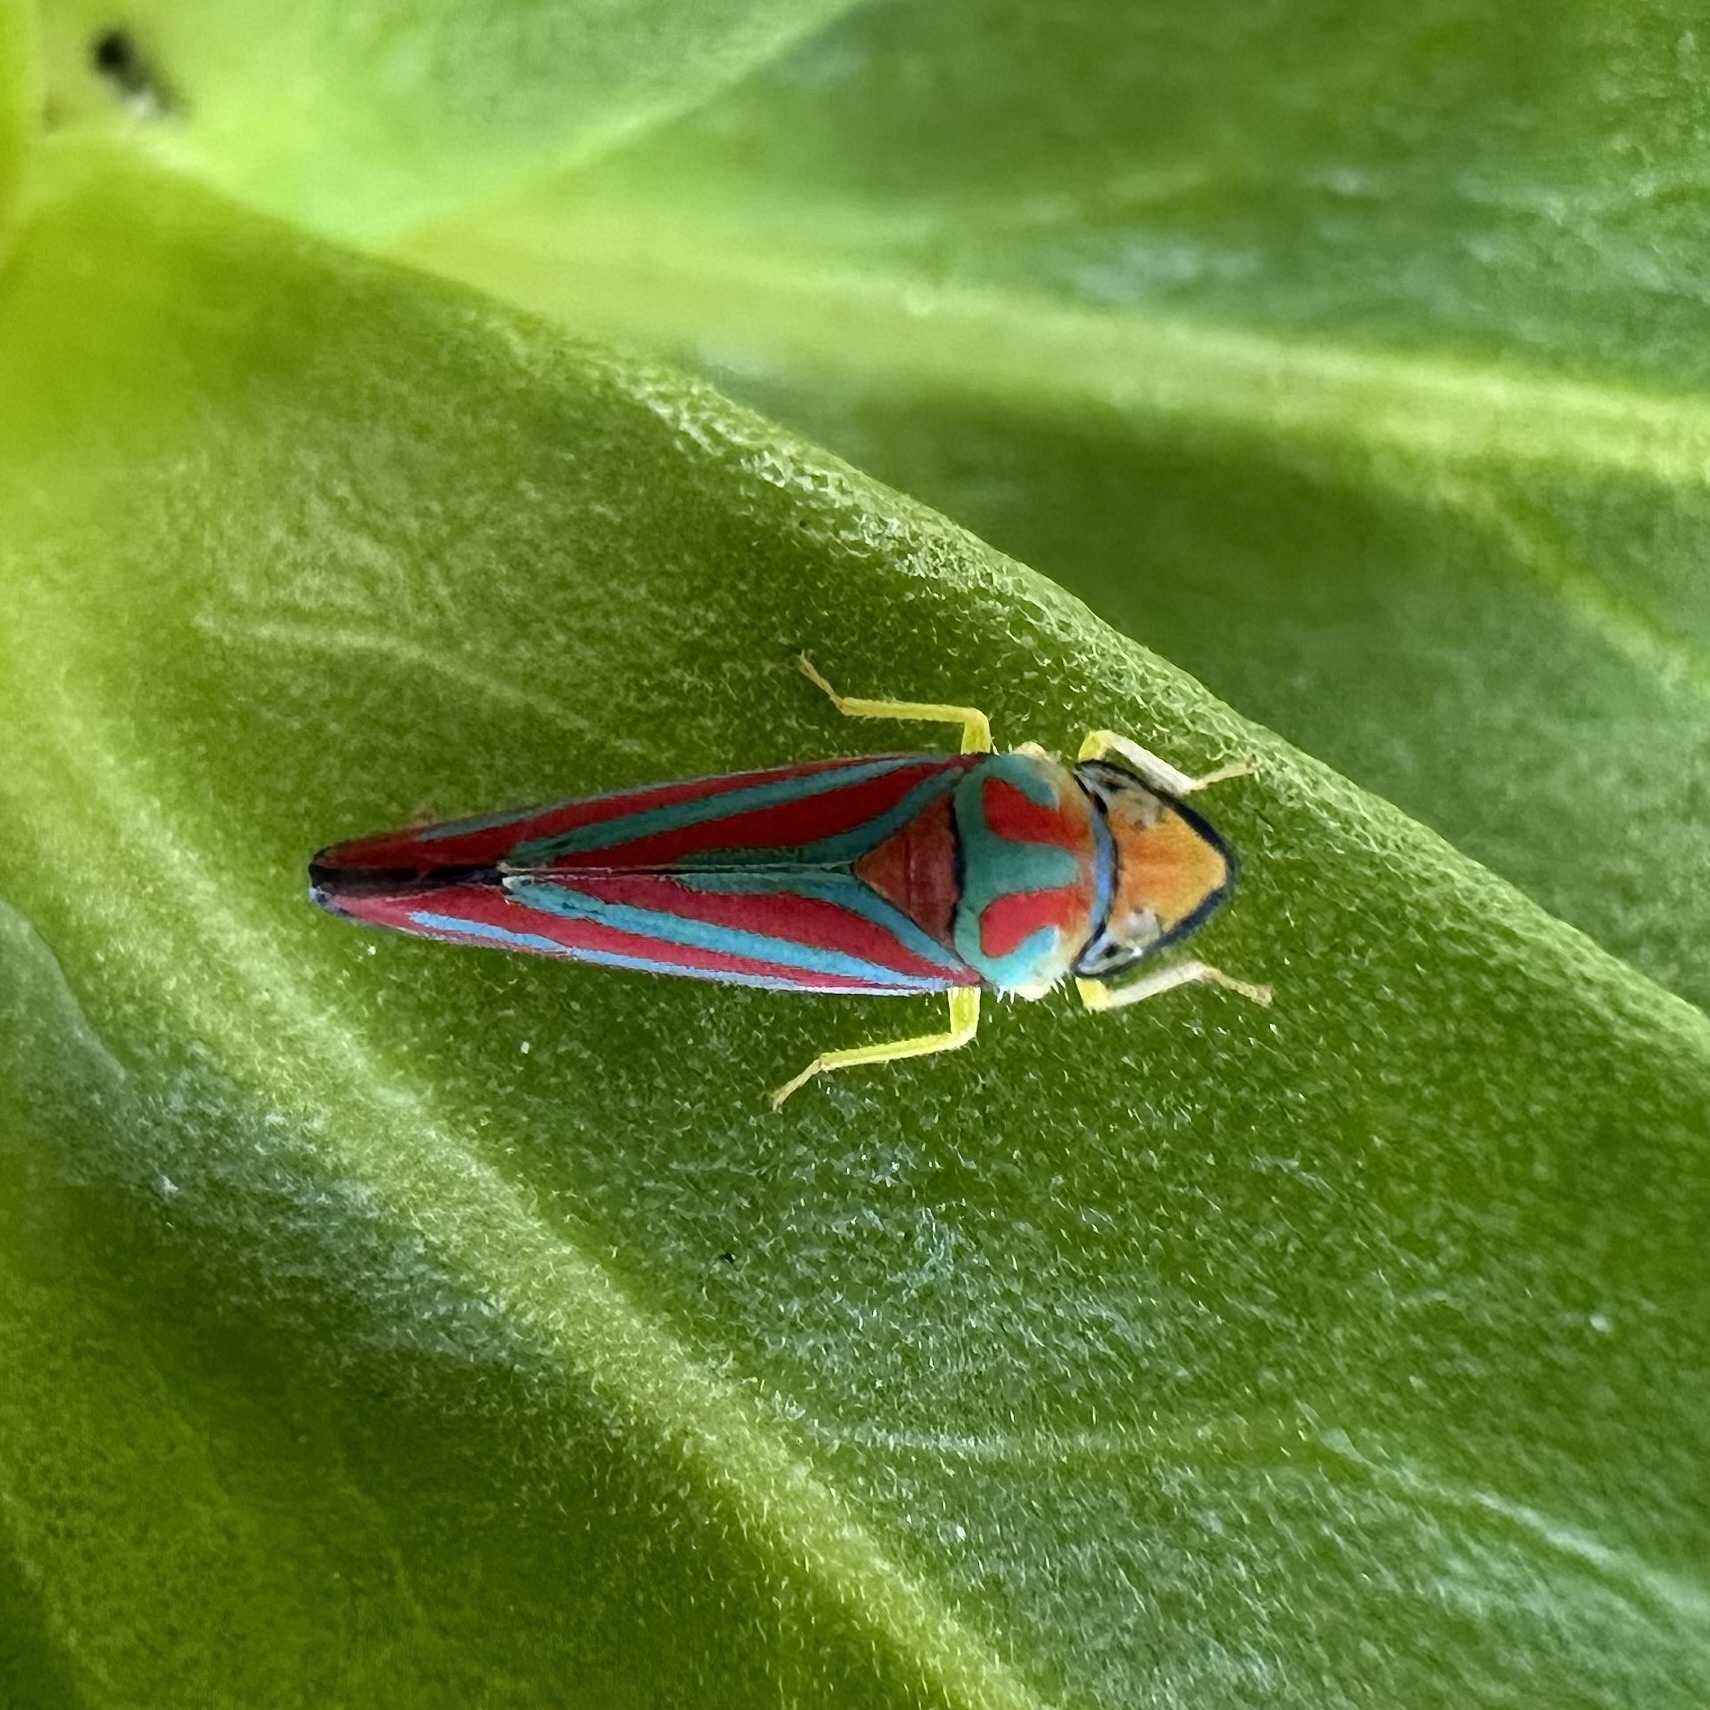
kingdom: Animalia
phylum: Arthropoda
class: Insecta
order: Hemiptera
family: Cicadellidae
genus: Graphocephala
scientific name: Graphocephala coccinea
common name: Candy-striped leafhopper
